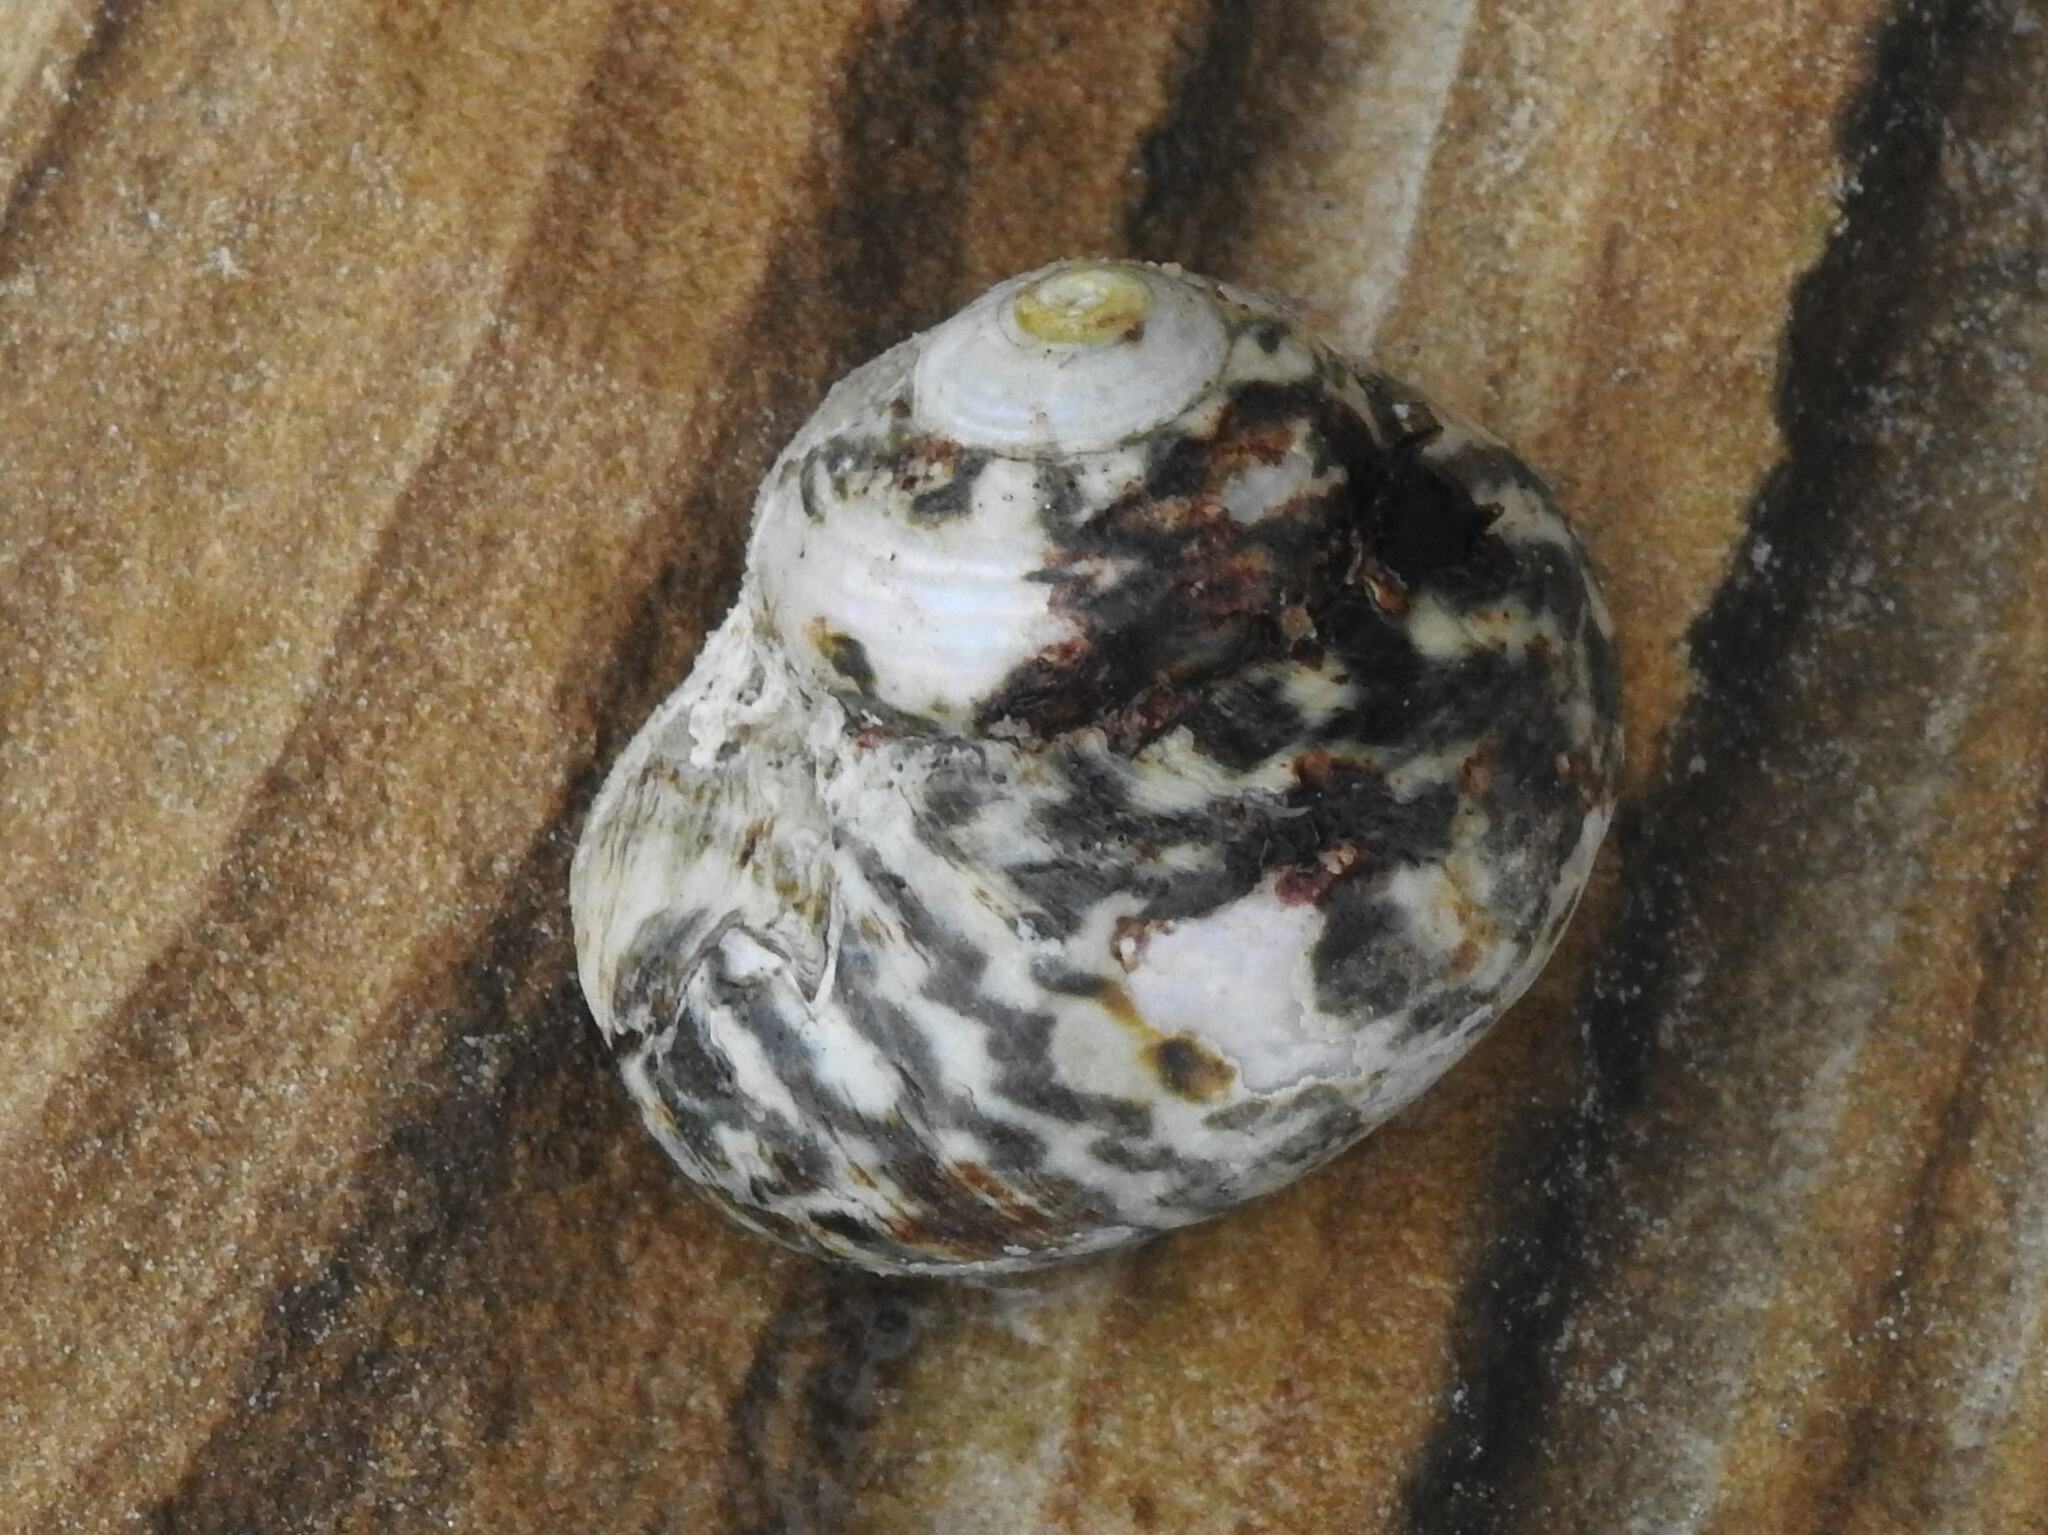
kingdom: Animalia
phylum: Mollusca
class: Gastropoda
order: Trochida
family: Turbinidae
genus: Lunella
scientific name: Lunella undulata
